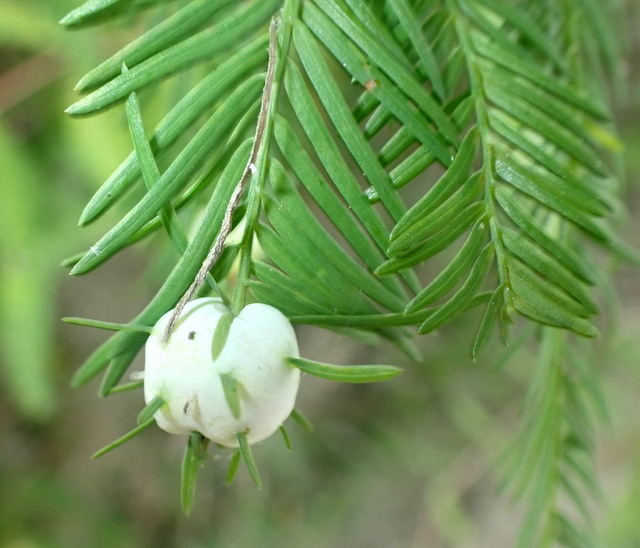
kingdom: Animalia
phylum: Arthropoda
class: Insecta
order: Diptera
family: Cecidomyiidae
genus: Taxodiomyia
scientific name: Taxodiomyia cupressiananassa
